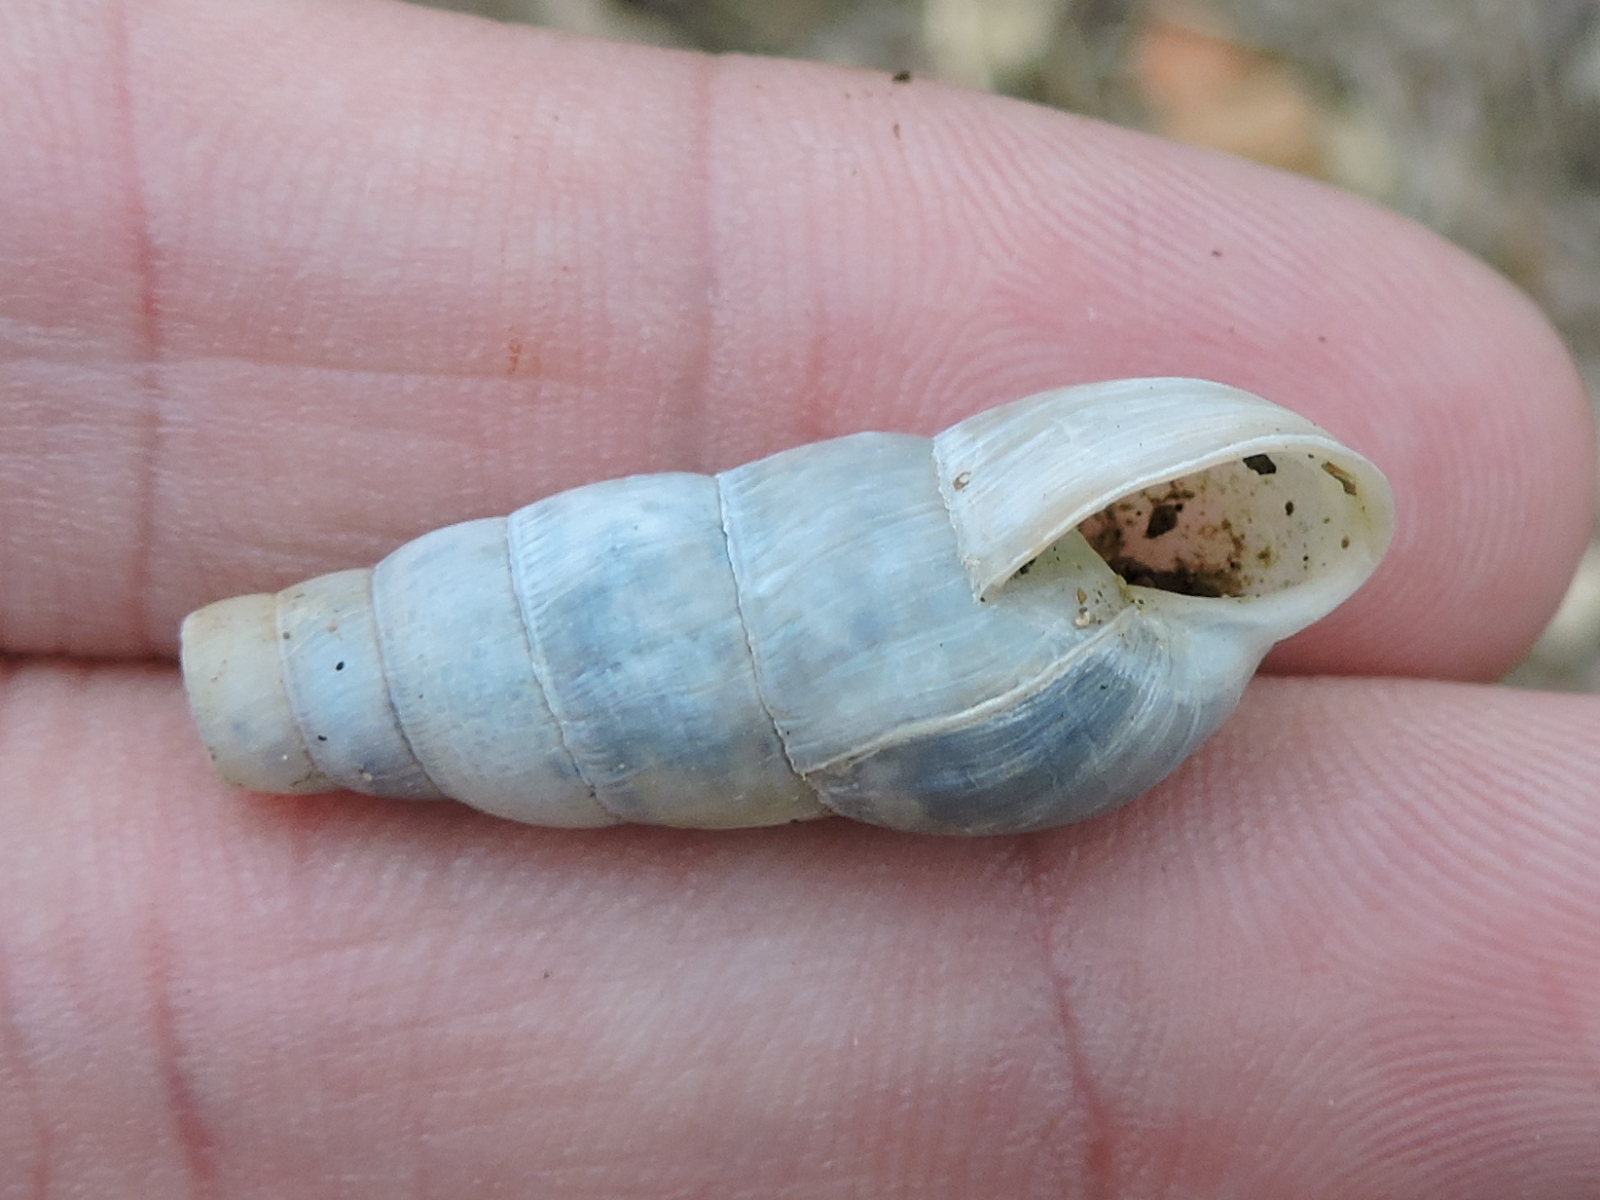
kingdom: Animalia
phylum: Mollusca
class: Gastropoda
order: Stylommatophora
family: Achatinidae
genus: Rumina
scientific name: Rumina decollata
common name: Decollate snail
